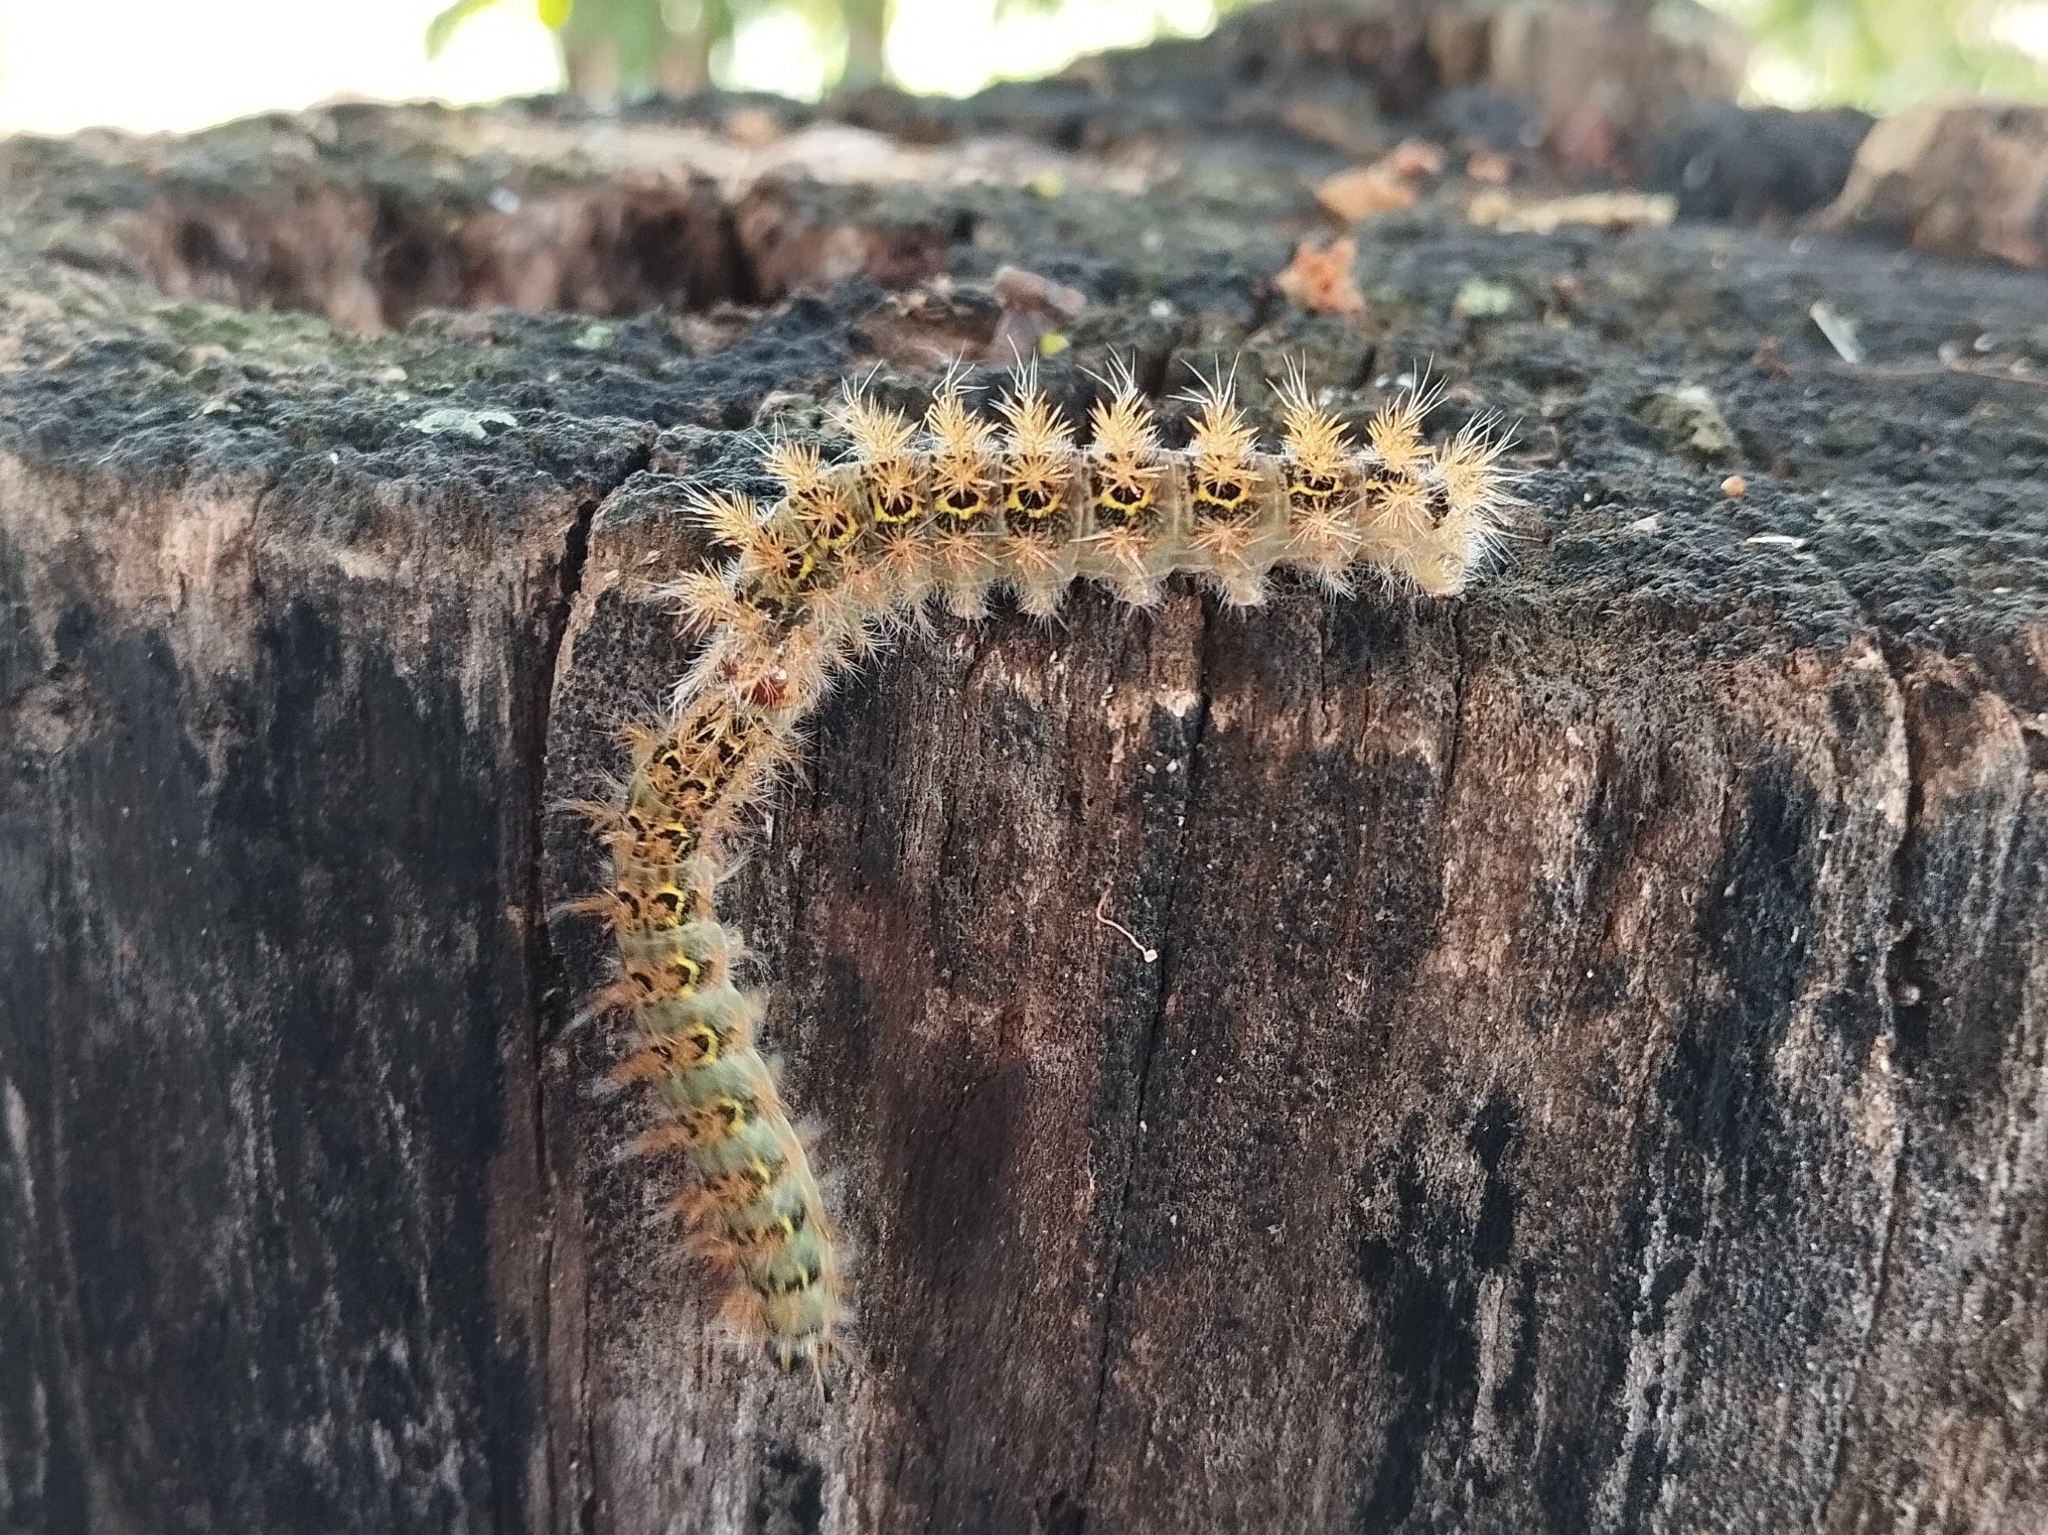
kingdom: Animalia
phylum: Arthropoda
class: Insecta
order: Lepidoptera
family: Saturniidae
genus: Hylesia
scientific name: Hylesia nanus
